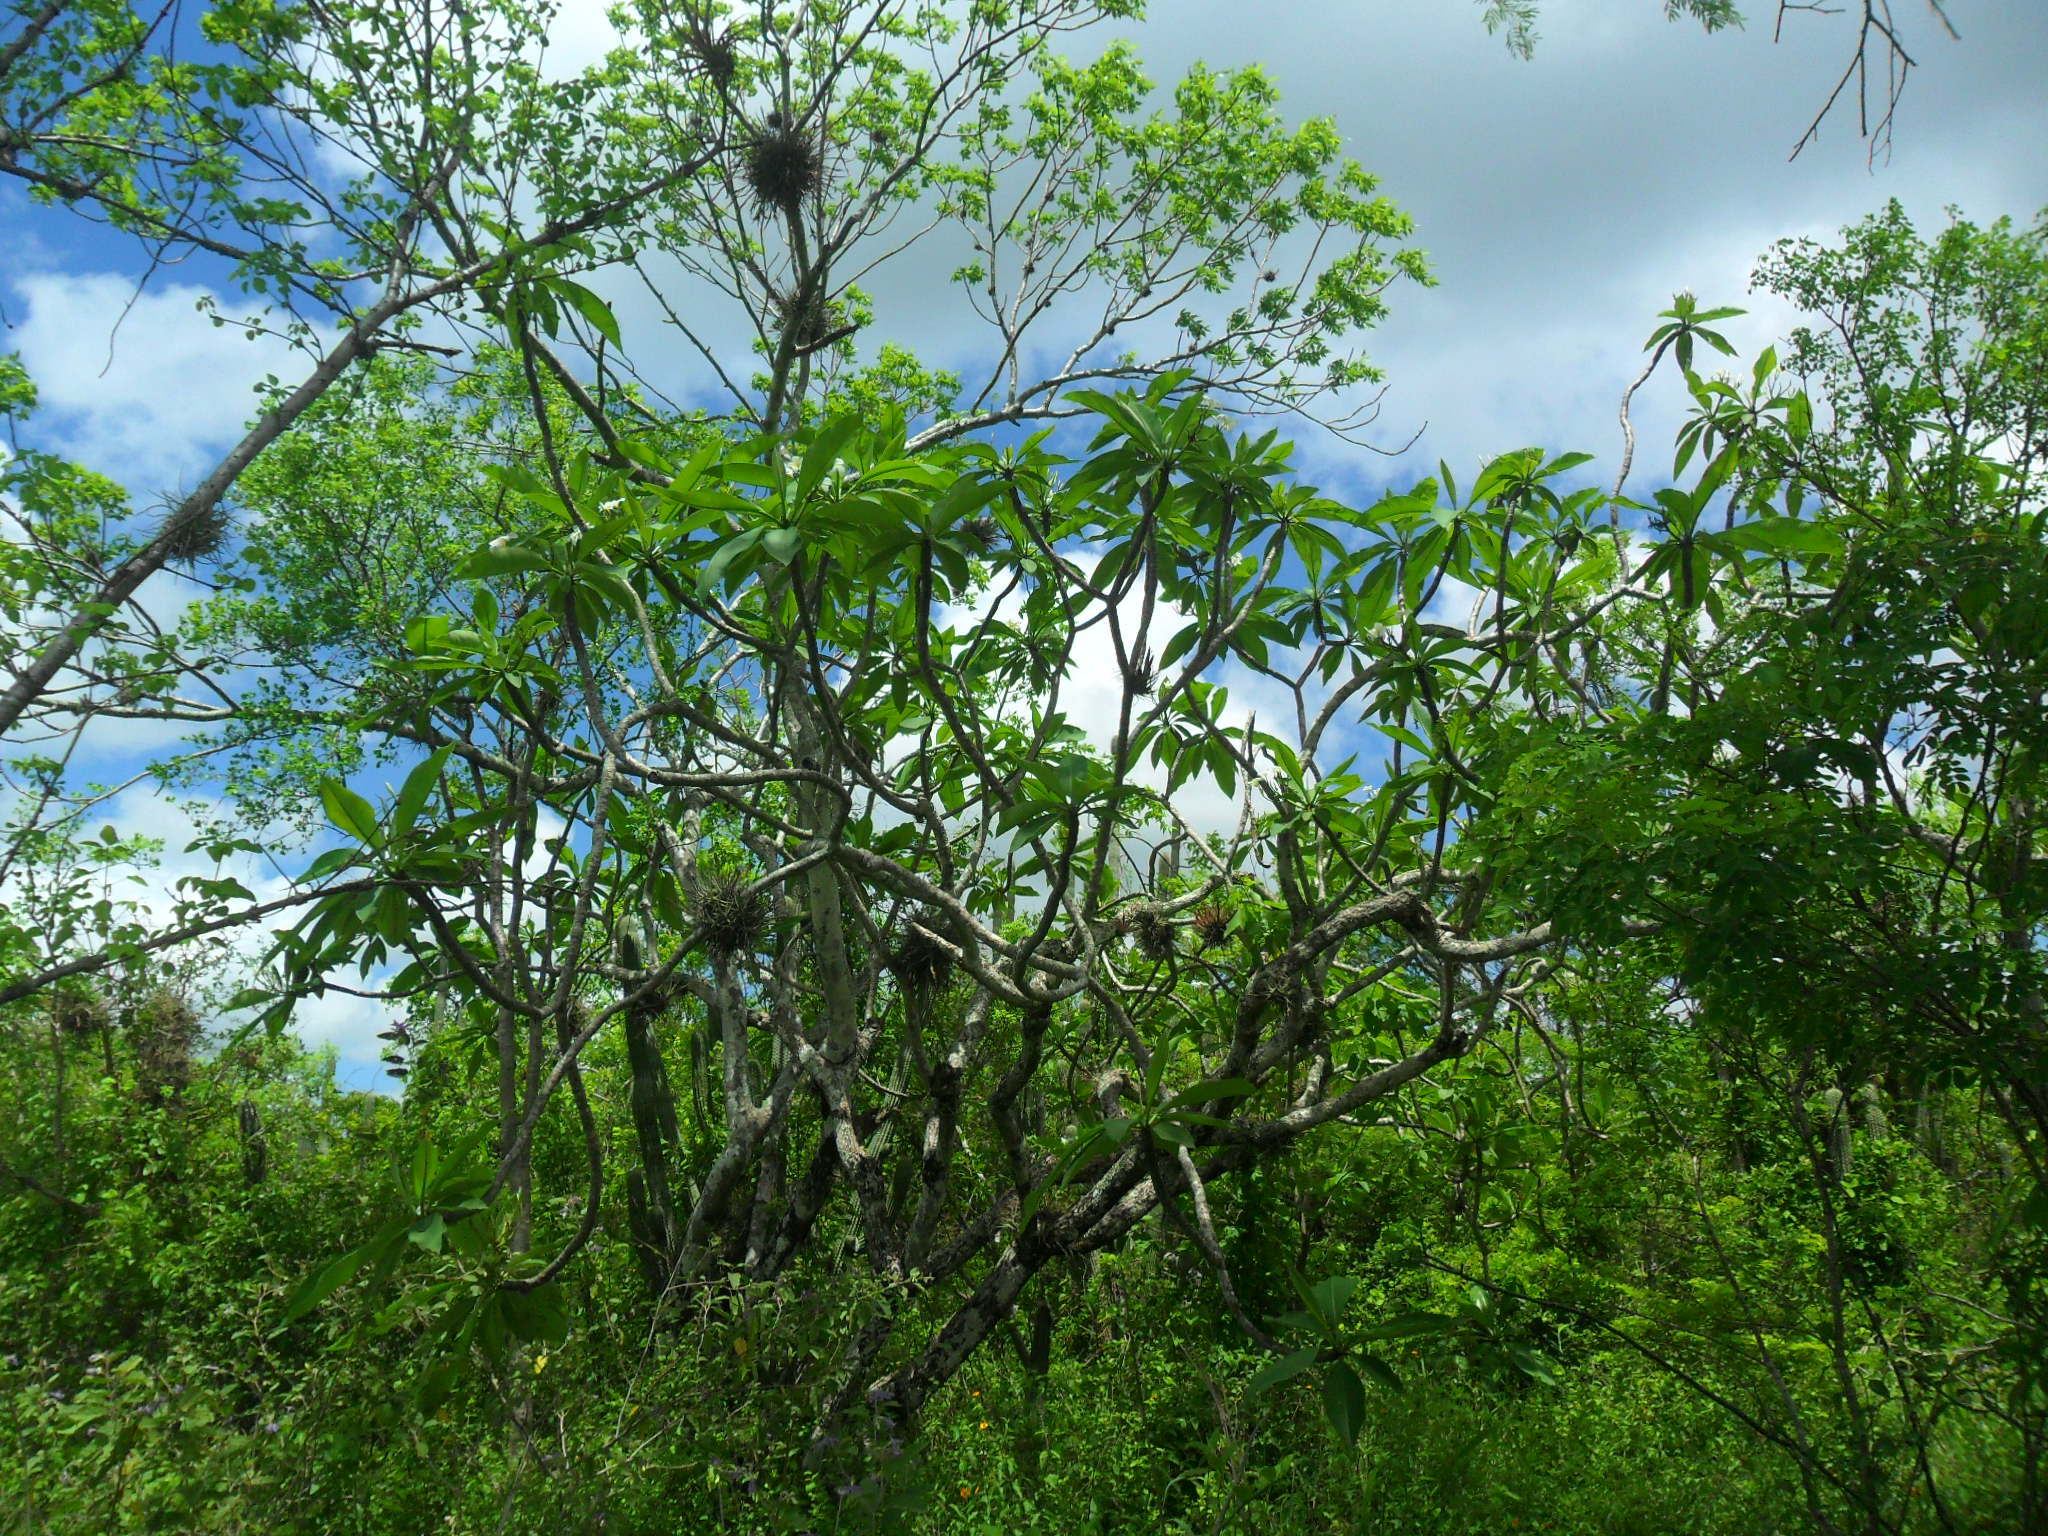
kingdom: Plantae
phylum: Tracheophyta
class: Magnoliopsida
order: Gentianales
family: Apocynaceae
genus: Plumeria
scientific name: Plumeria rubra
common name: Pagoda-tree
